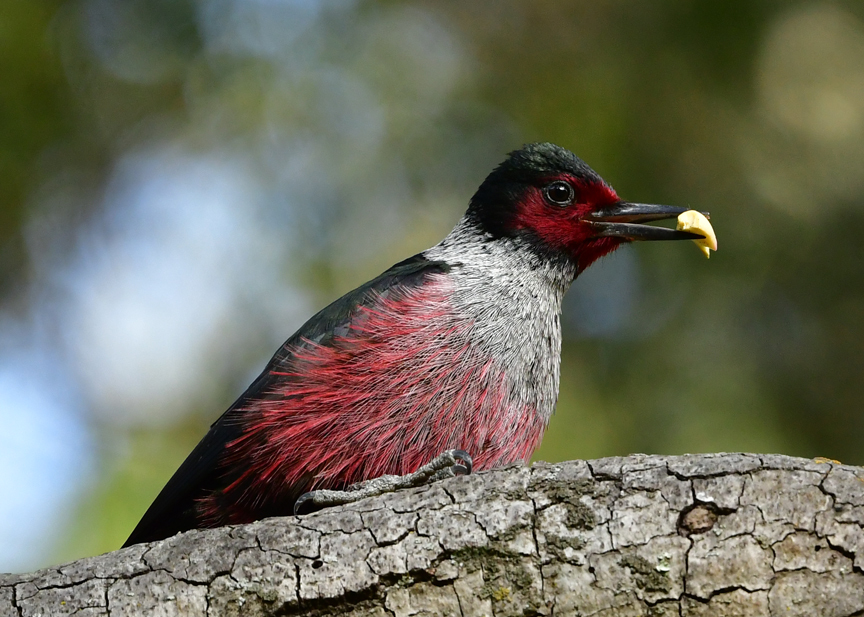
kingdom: Animalia
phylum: Chordata
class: Aves
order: Piciformes
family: Picidae
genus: Melanerpes
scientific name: Melanerpes lewis
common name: Lewis's woodpecker
